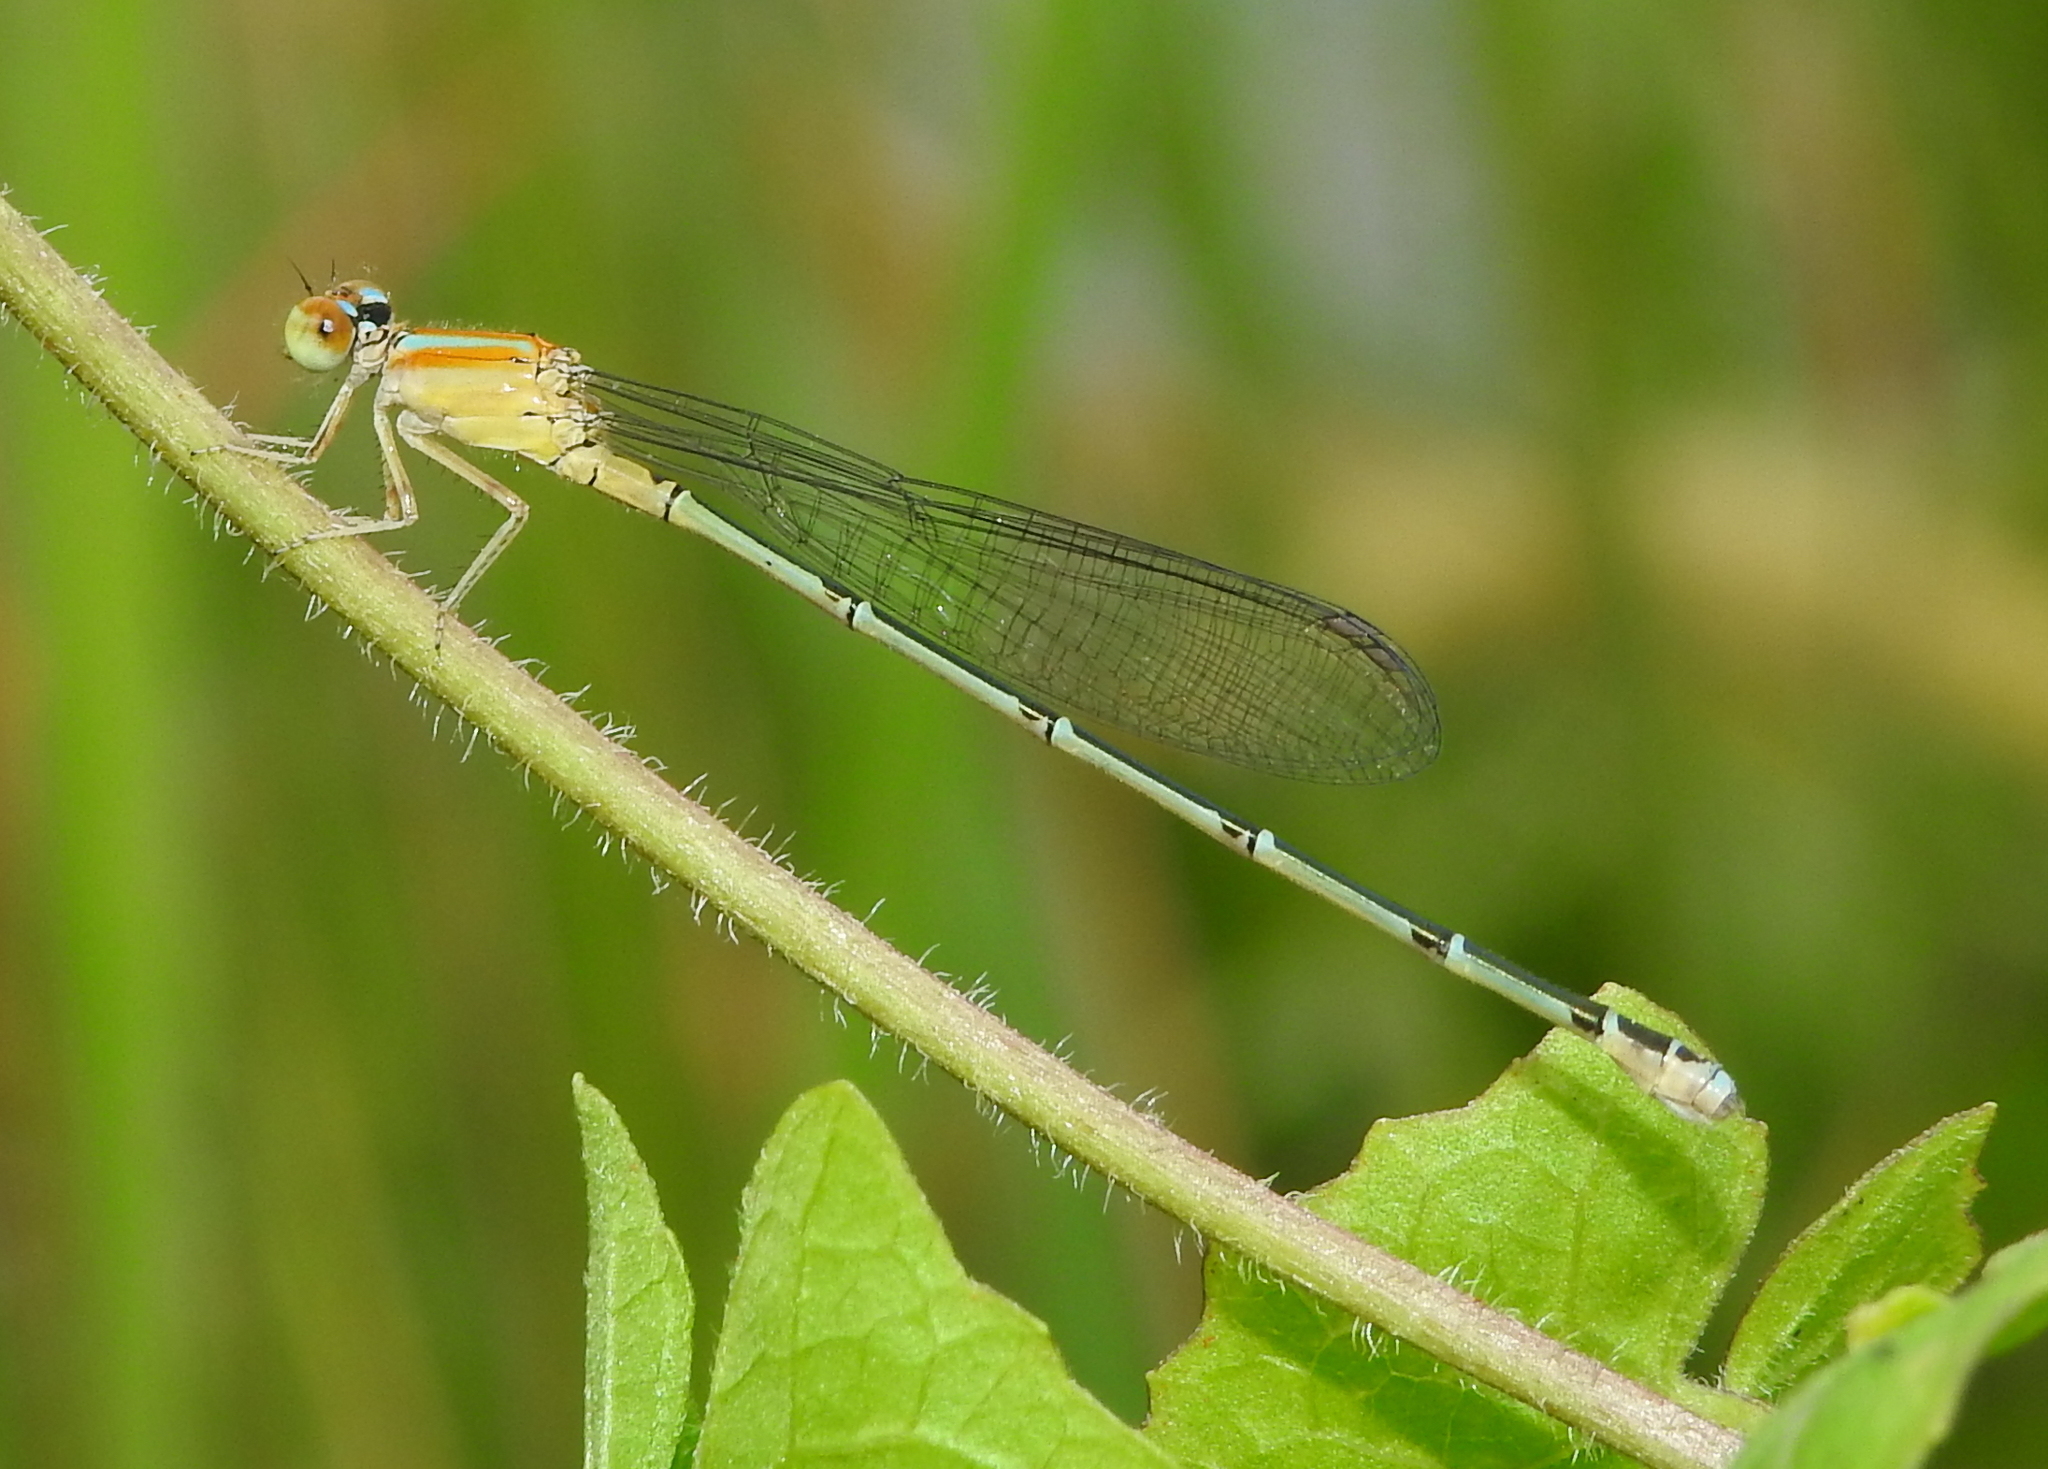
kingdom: Animalia
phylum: Arthropoda
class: Insecta
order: Odonata
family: Coenagrionidae
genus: Pseudagrion
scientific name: Pseudagrion microcephalum
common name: Blue riverdamsel
